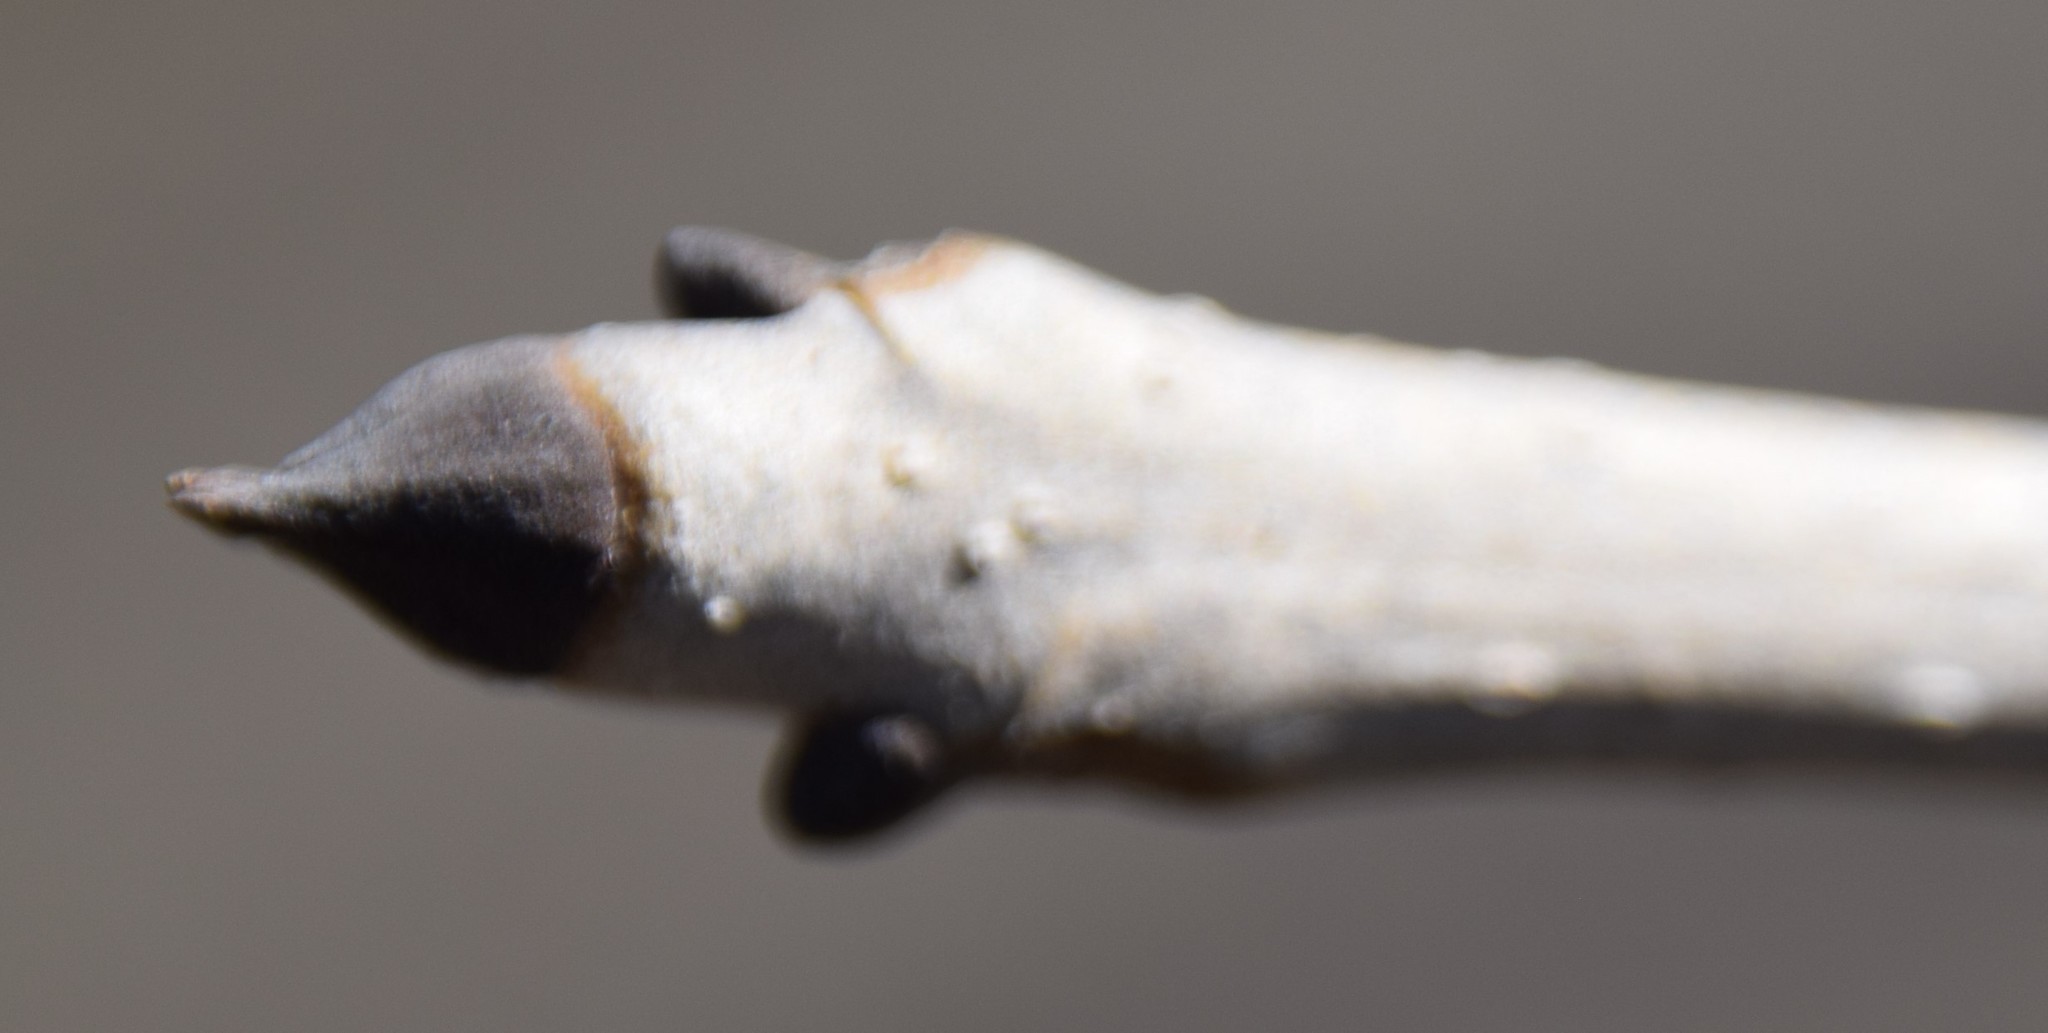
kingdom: Plantae
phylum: Tracheophyta
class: Magnoliopsida
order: Lamiales
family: Oleaceae
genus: Fraxinus
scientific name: Fraxinus nigra
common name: Black ash
